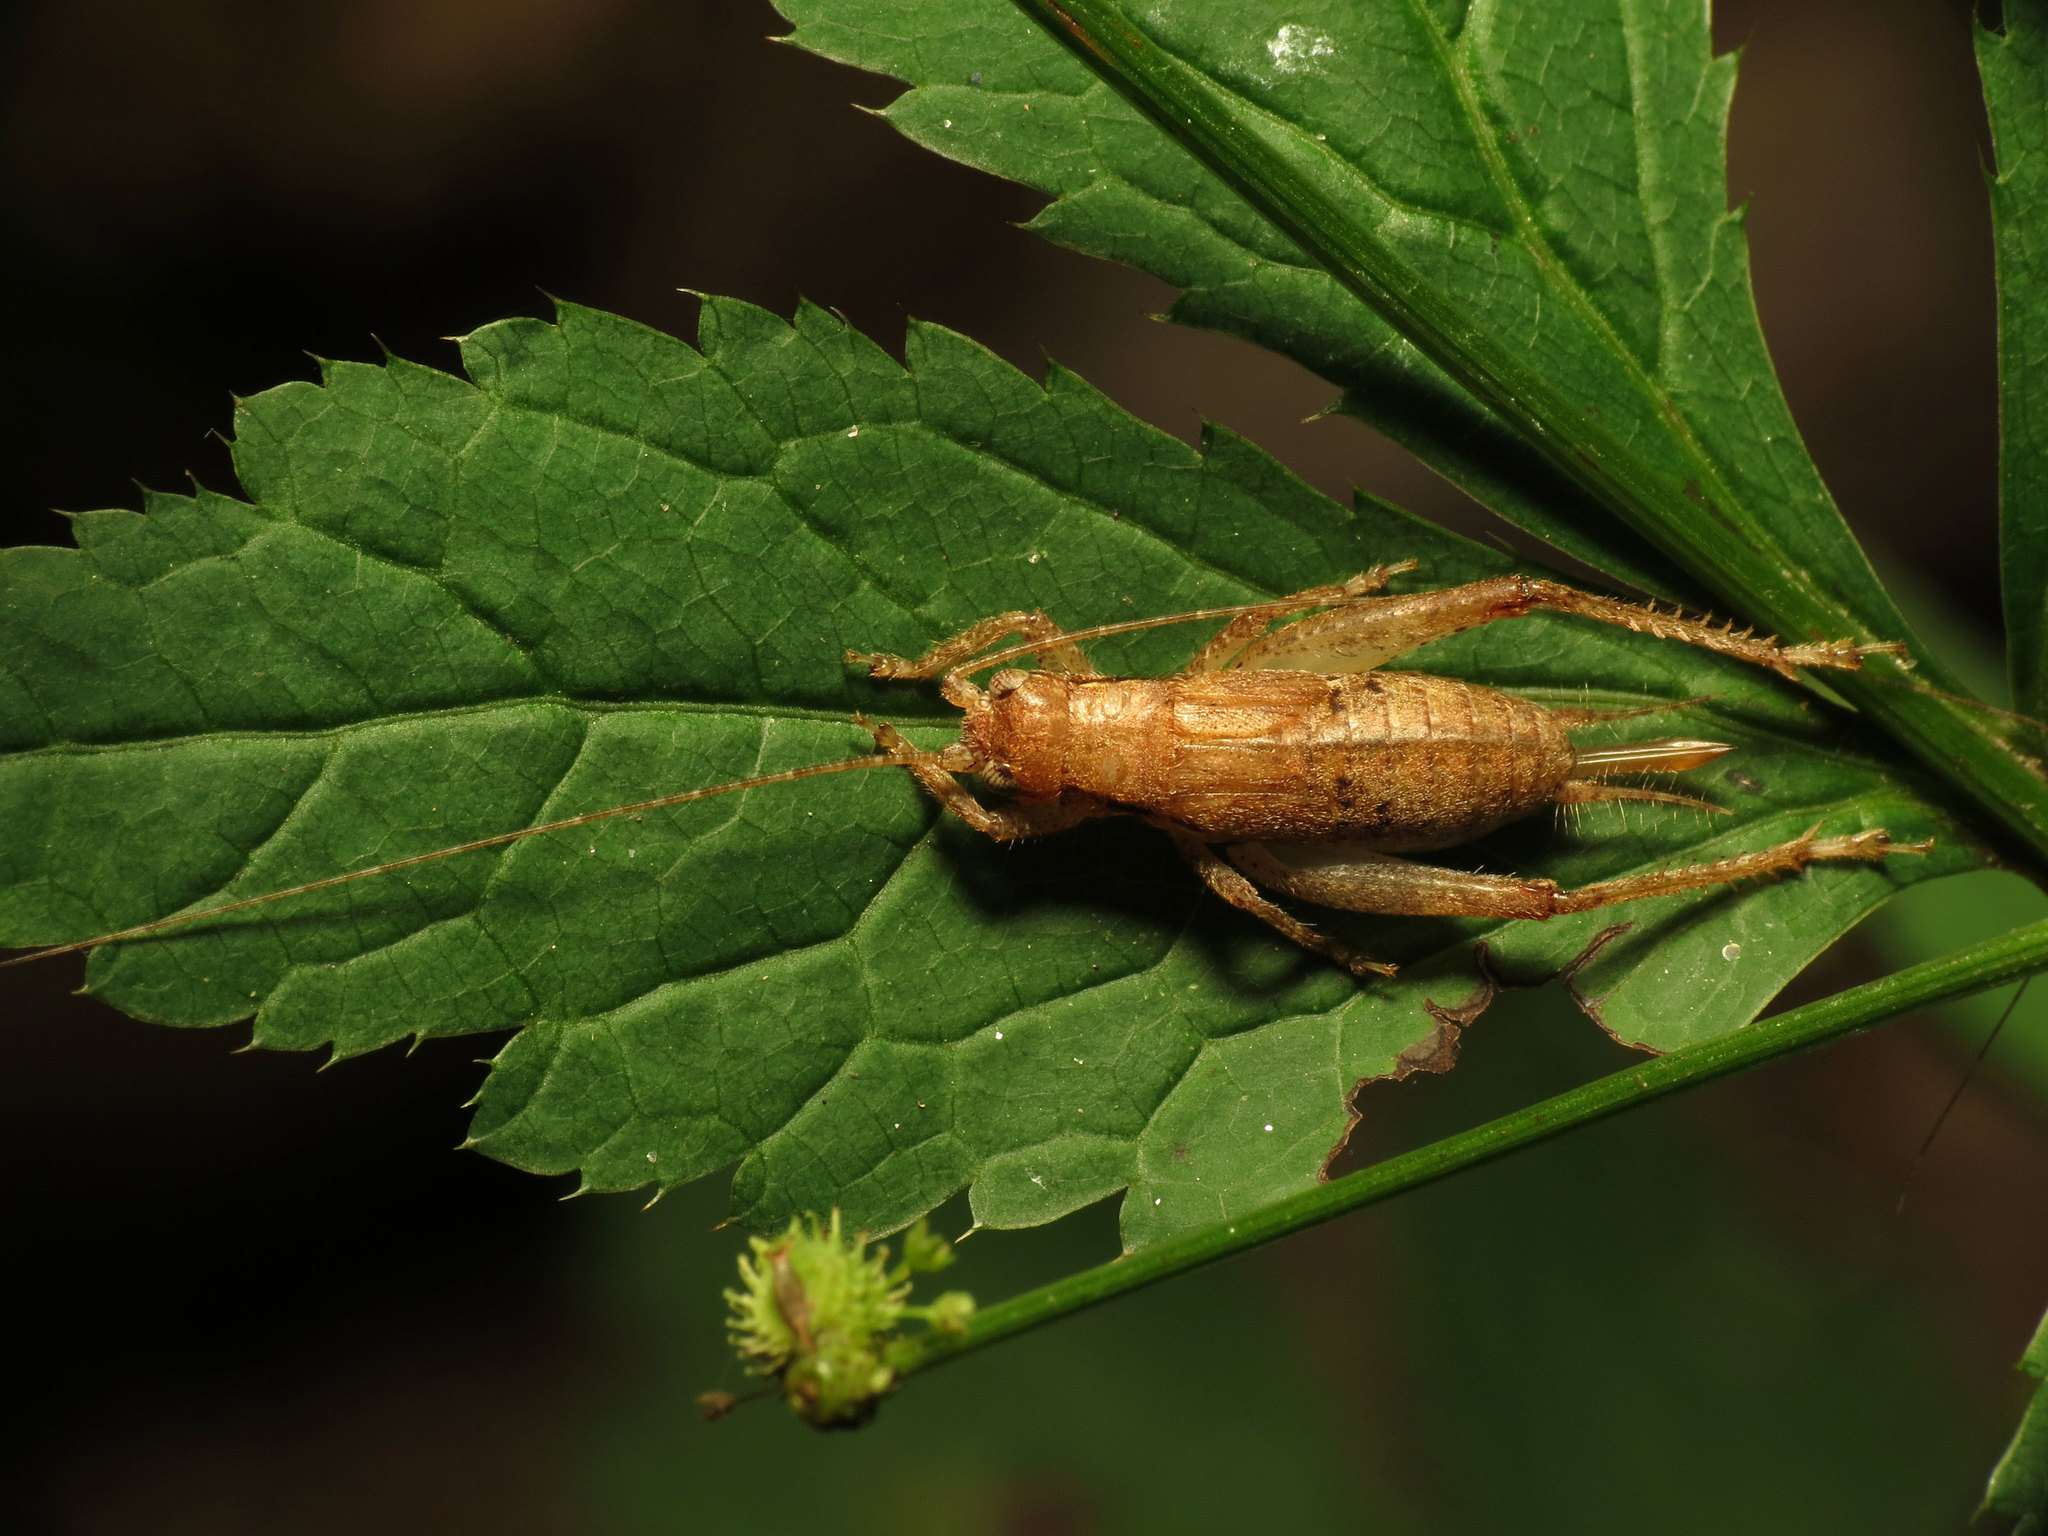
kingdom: Animalia
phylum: Arthropoda
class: Insecta
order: Orthoptera
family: Gryllidae
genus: Hapithus
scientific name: Hapithus saltator
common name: Jumping bush cricket
